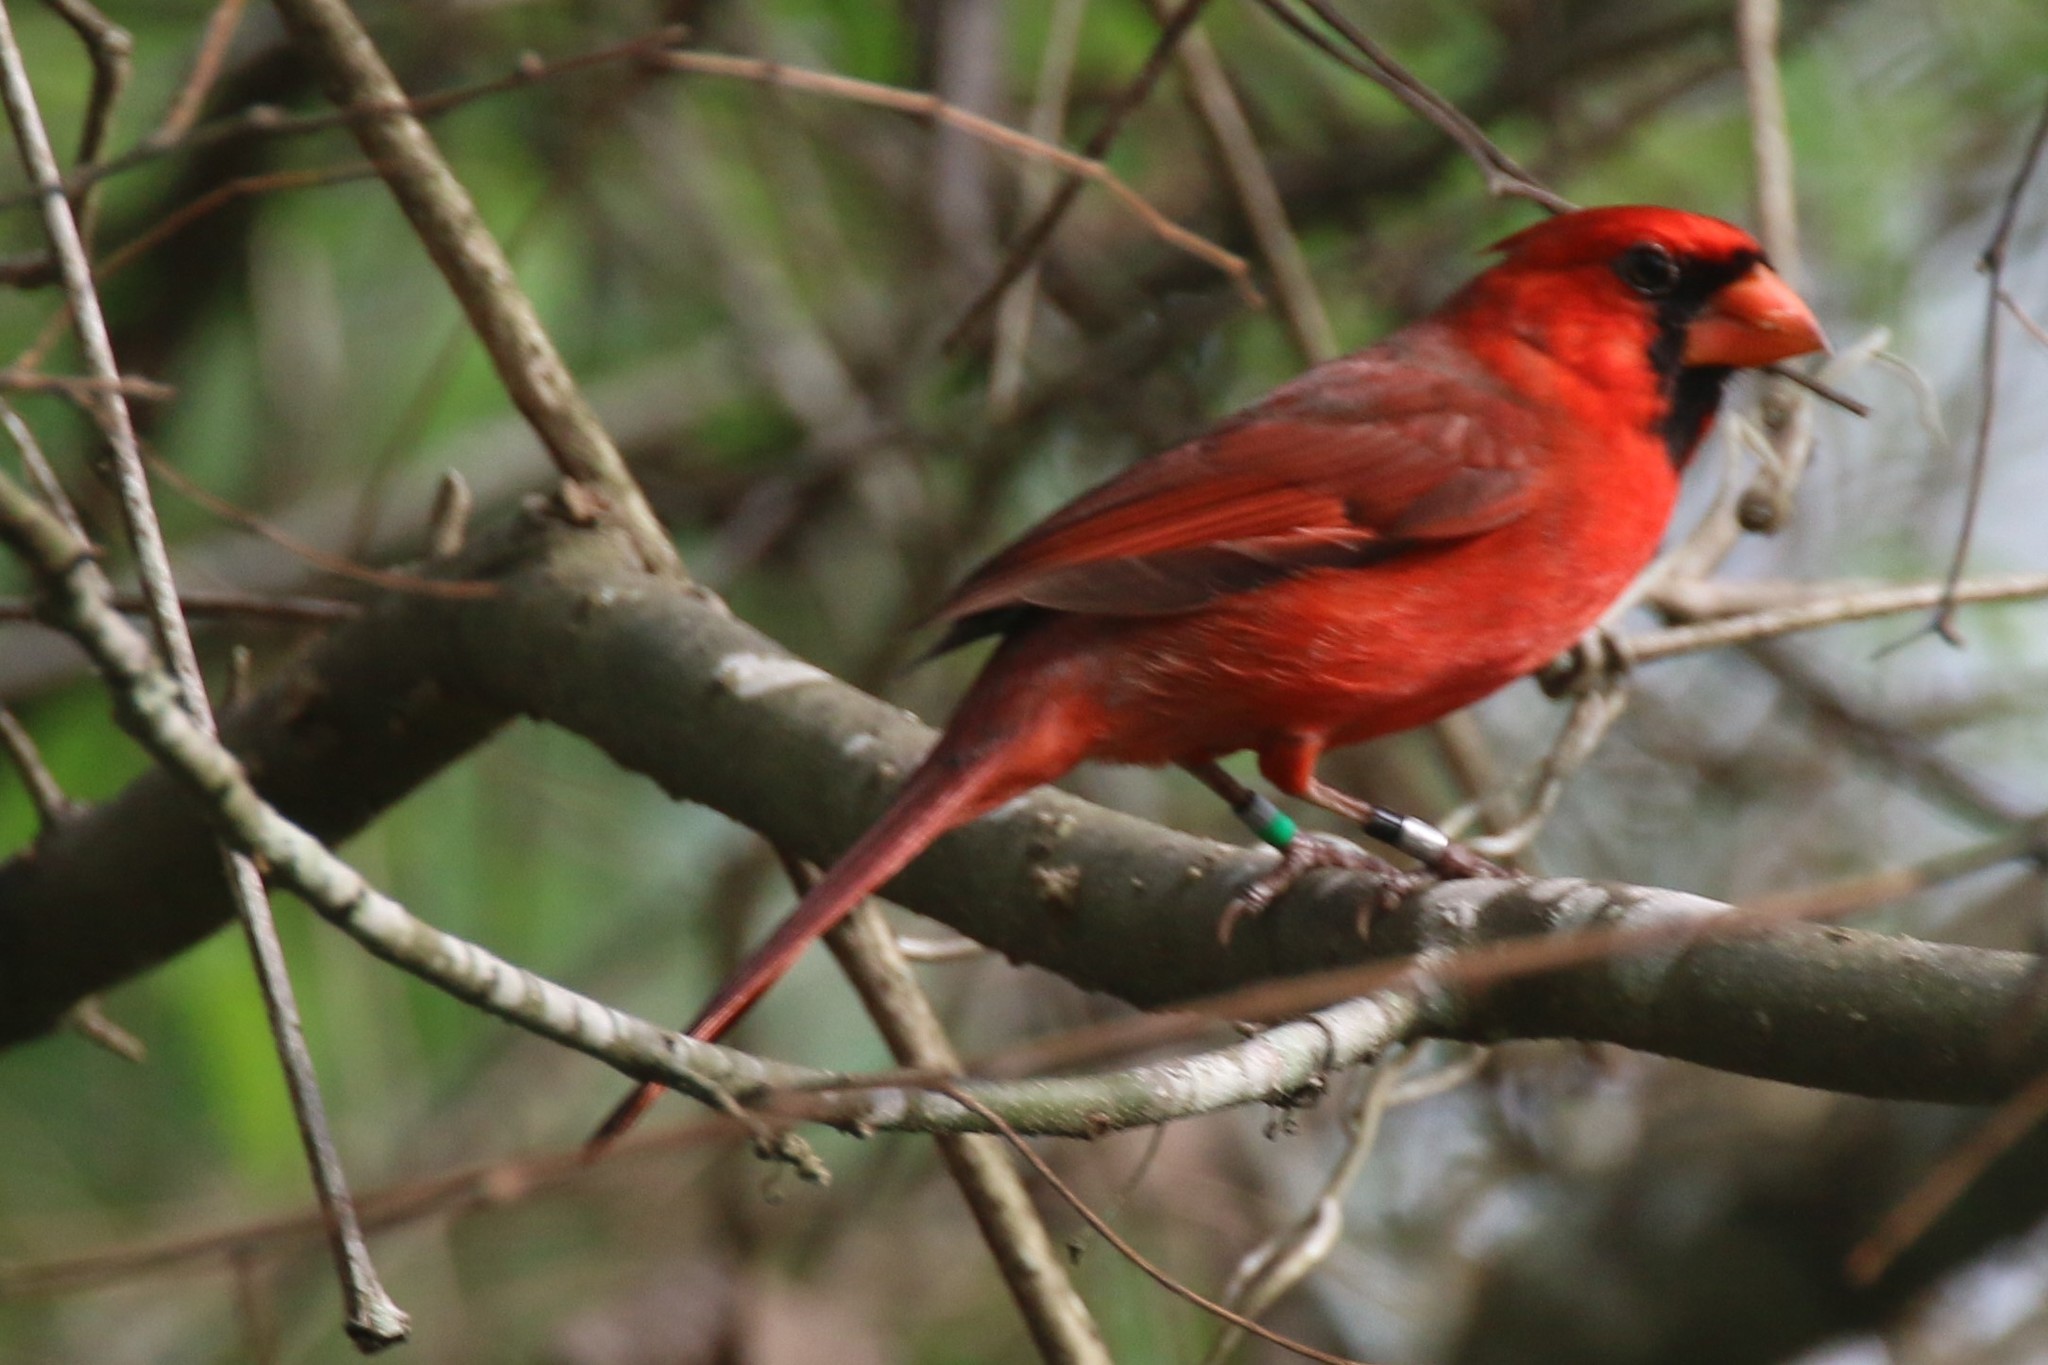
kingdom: Animalia
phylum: Chordata
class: Aves
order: Passeriformes
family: Cardinalidae
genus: Cardinalis
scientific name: Cardinalis cardinalis
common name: Northern cardinal
